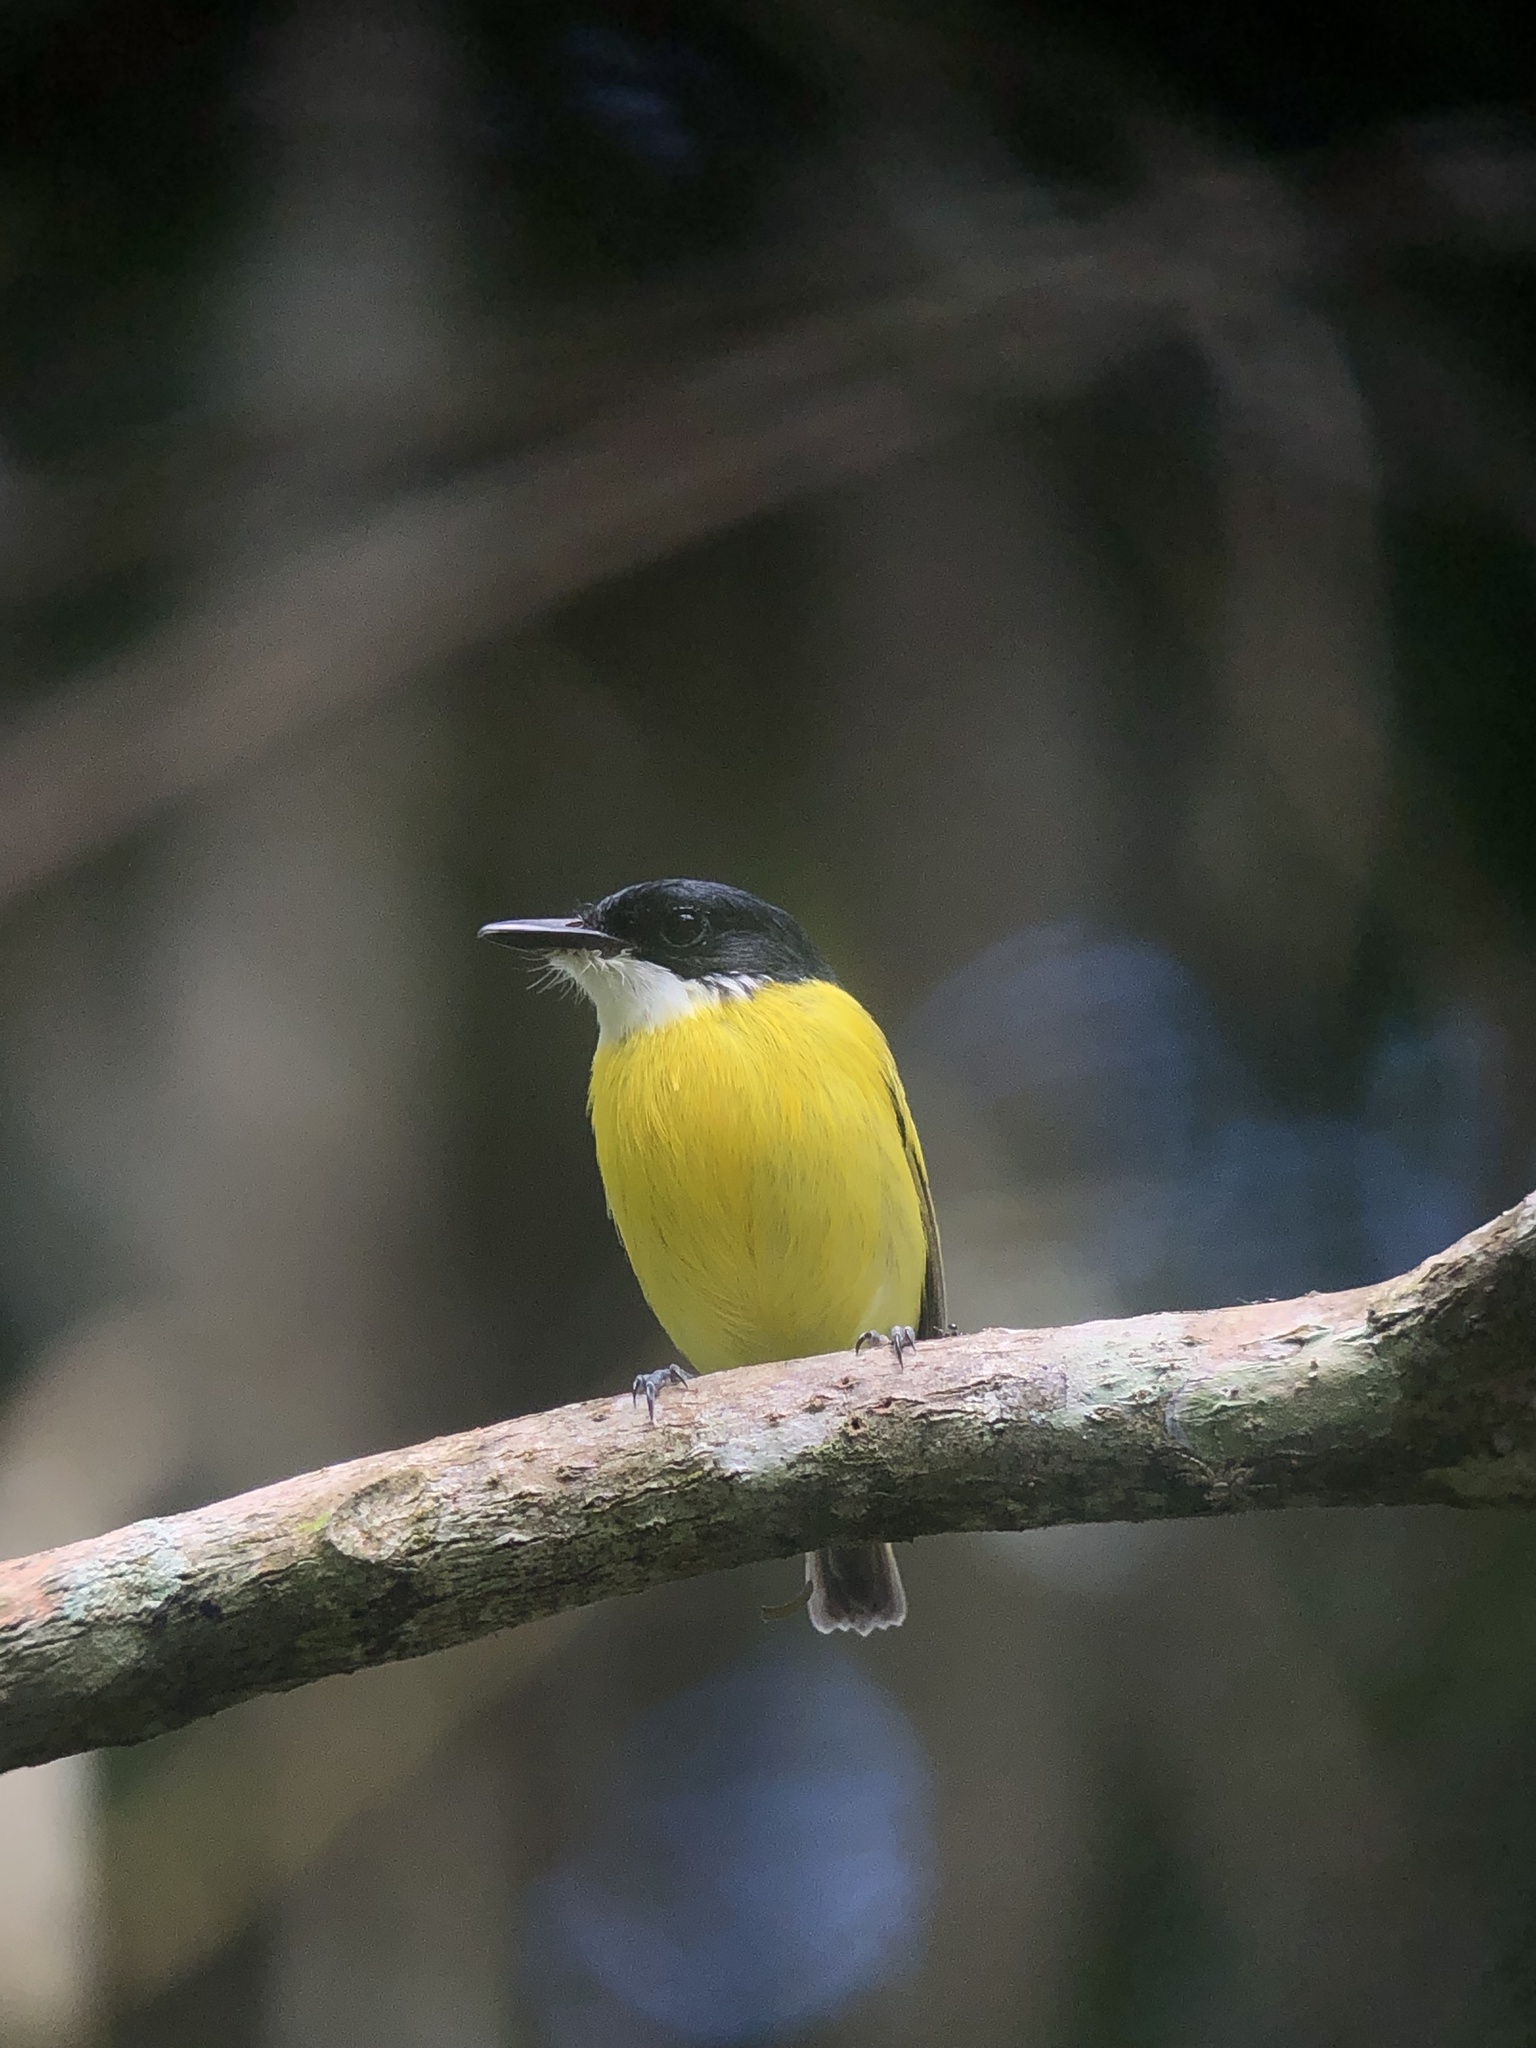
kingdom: Animalia
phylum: Chordata
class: Aves
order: Passeriformes
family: Tyrannidae
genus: Todirostrum
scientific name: Todirostrum nigriceps
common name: Black-headed tody-flycatcher
